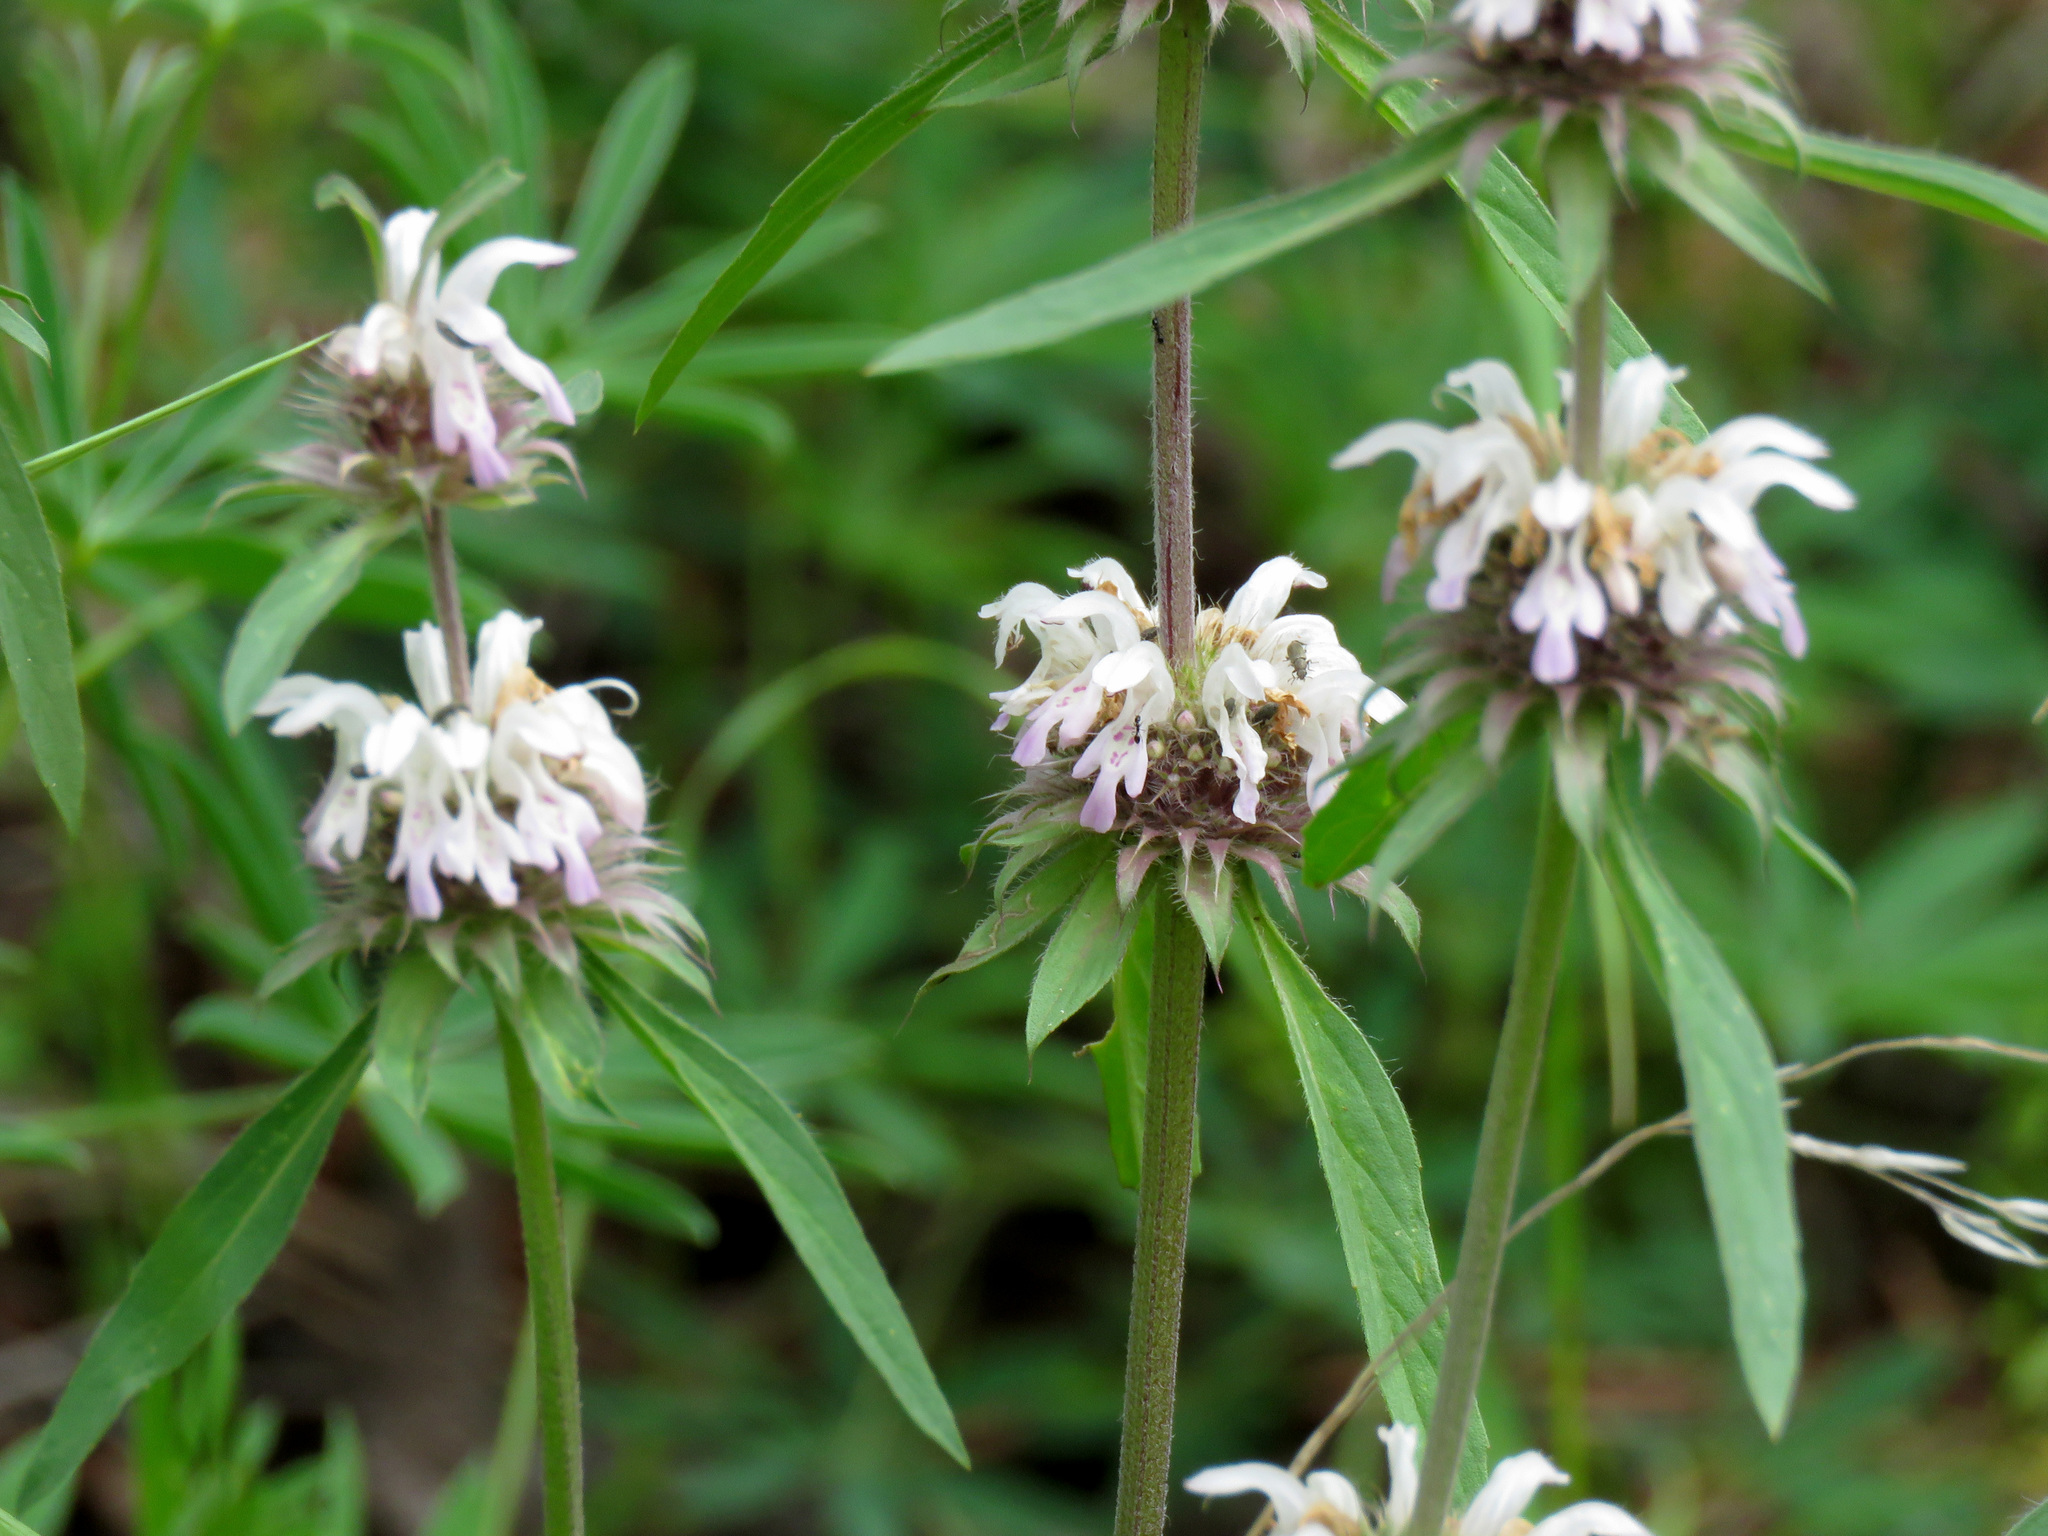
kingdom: Plantae
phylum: Tracheophyta
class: Magnoliopsida
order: Lamiales
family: Lamiaceae
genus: Monarda
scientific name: Monarda citriodora
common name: Lemon beebalm
